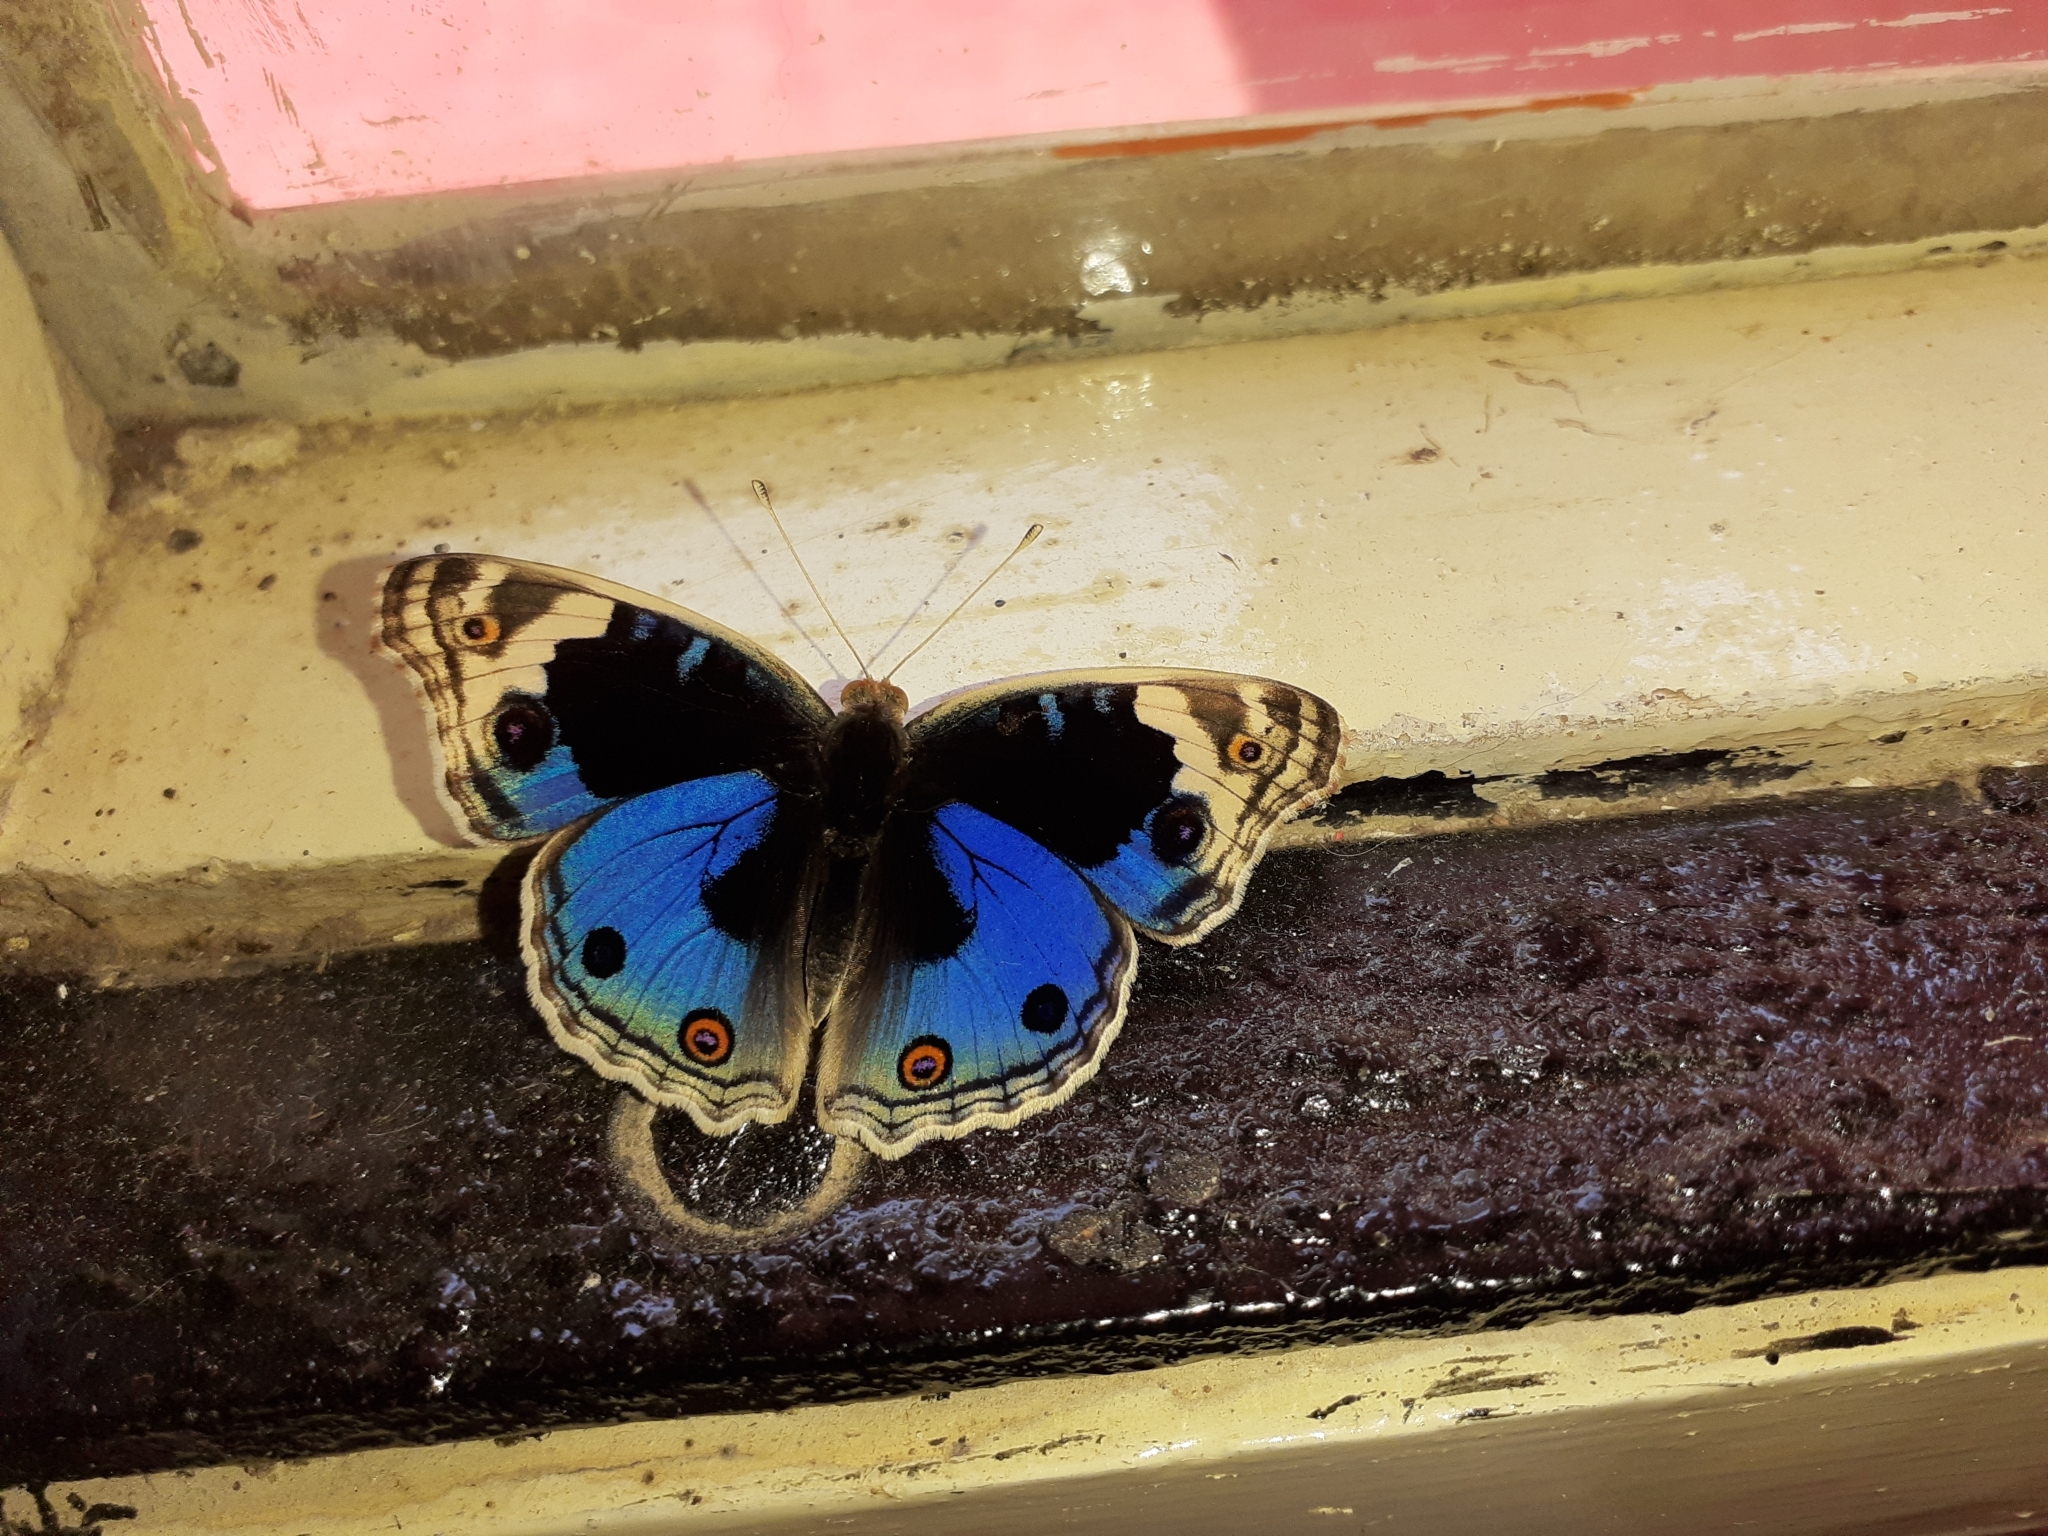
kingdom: Animalia
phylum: Arthropoda
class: Insecta
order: Lepidoptera
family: Nymphalidae
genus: Junonia
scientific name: Junonia orithya
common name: Blue pansy
